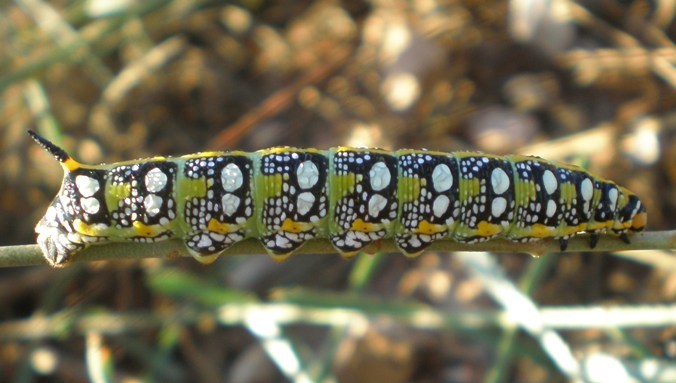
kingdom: Animalia
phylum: Arthropoda
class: Insecta
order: Lepidoptera
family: Sphingidae
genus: Hyles
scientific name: Hyles euphorbiae
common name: Spurge hawk-moth
